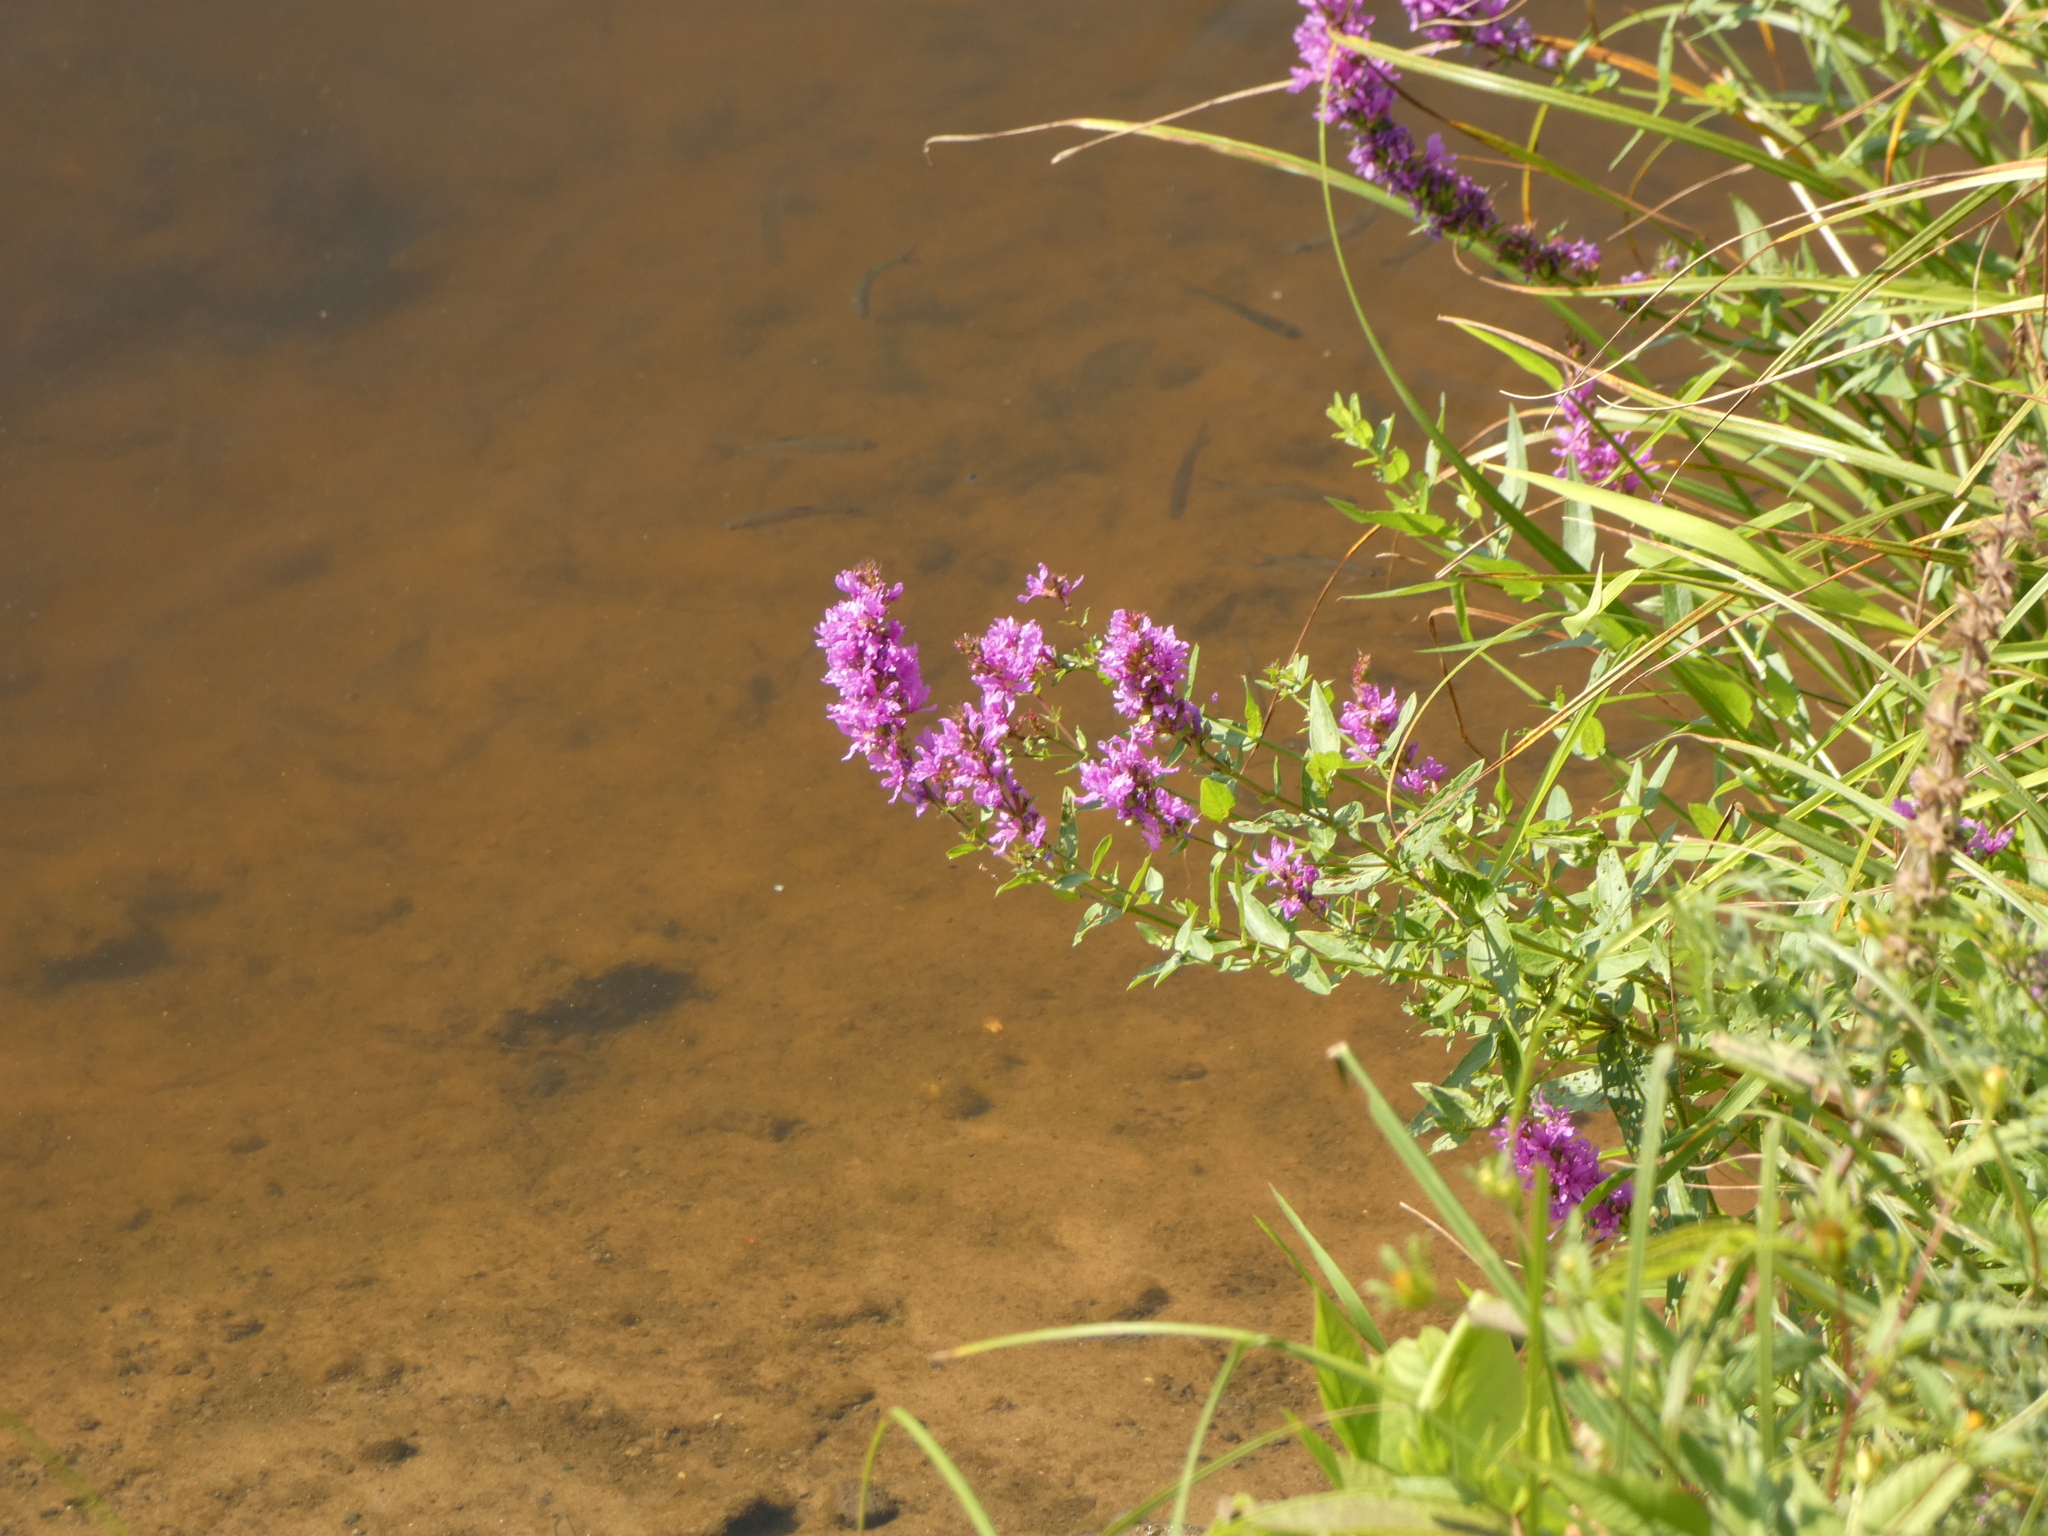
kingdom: Plantae
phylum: Tracheophyta
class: Magnoliopsida
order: Myrtales
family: Lythraceae
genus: Lythrum
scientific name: Lythrum salicaria
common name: Purple loosestrife
